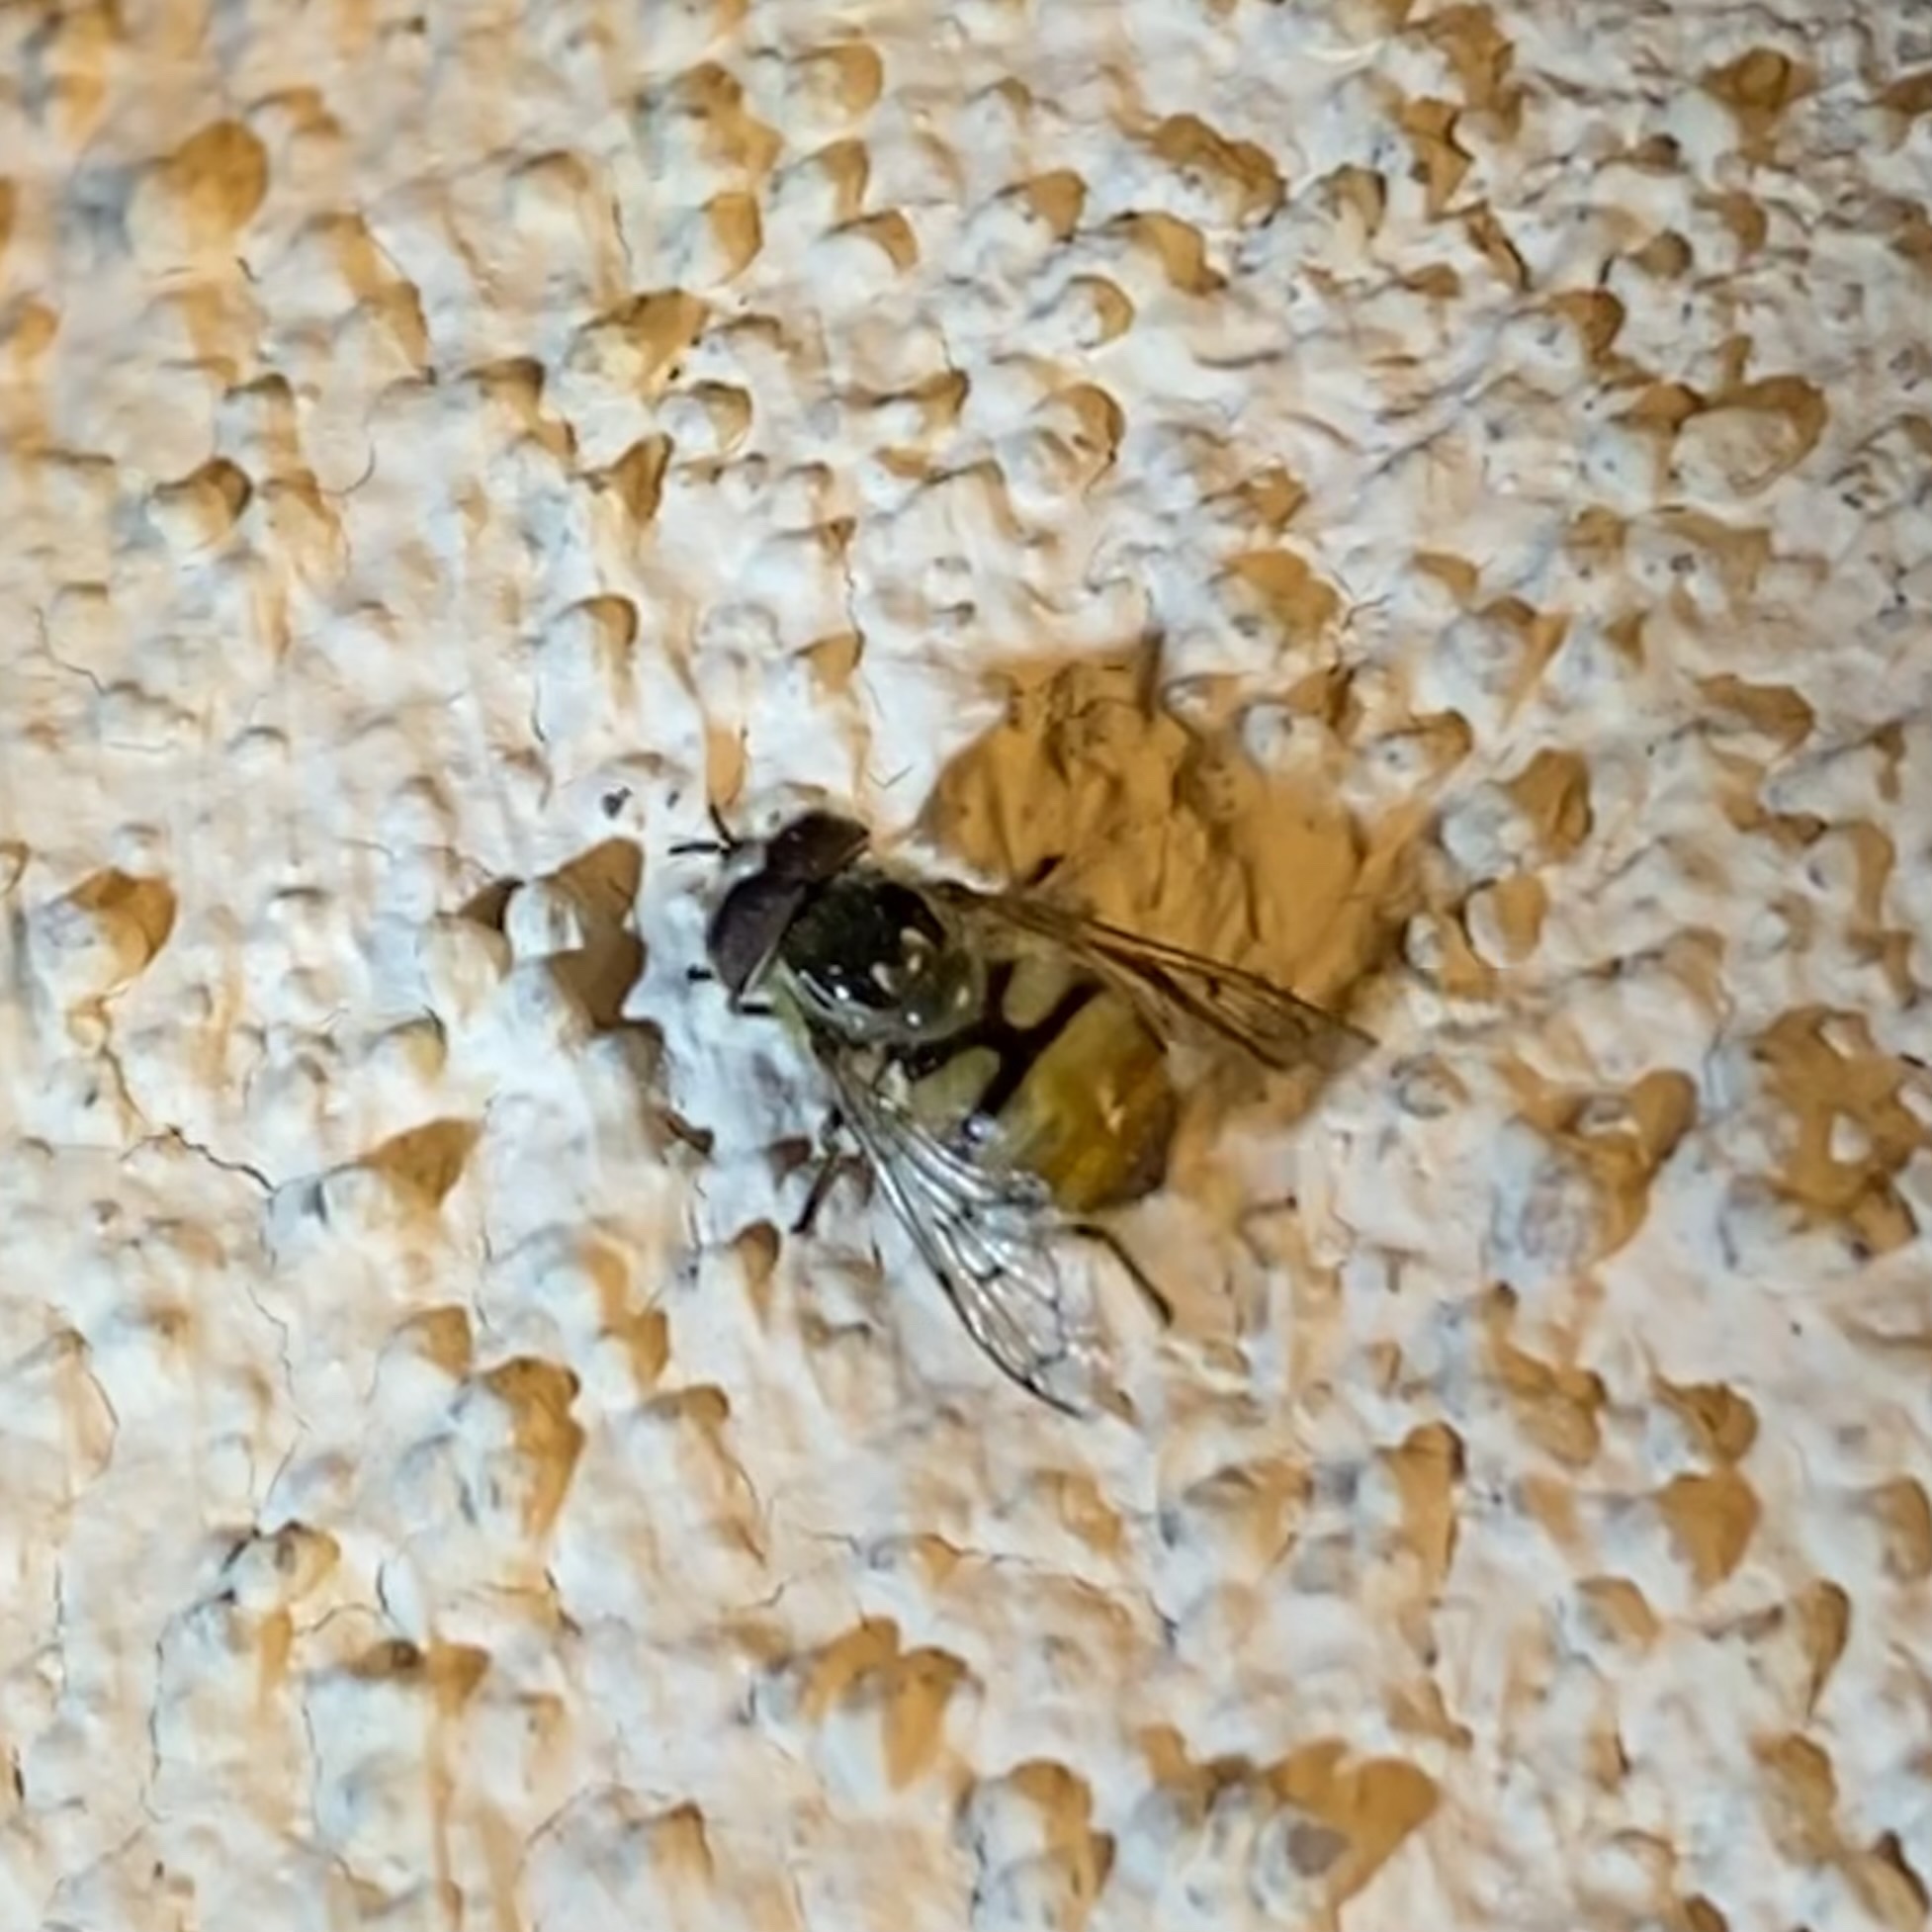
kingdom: Animalia
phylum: Arthropoda
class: Insecta
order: Diptera
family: Syrphidae
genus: Copestylum
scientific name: Copestylum satur
